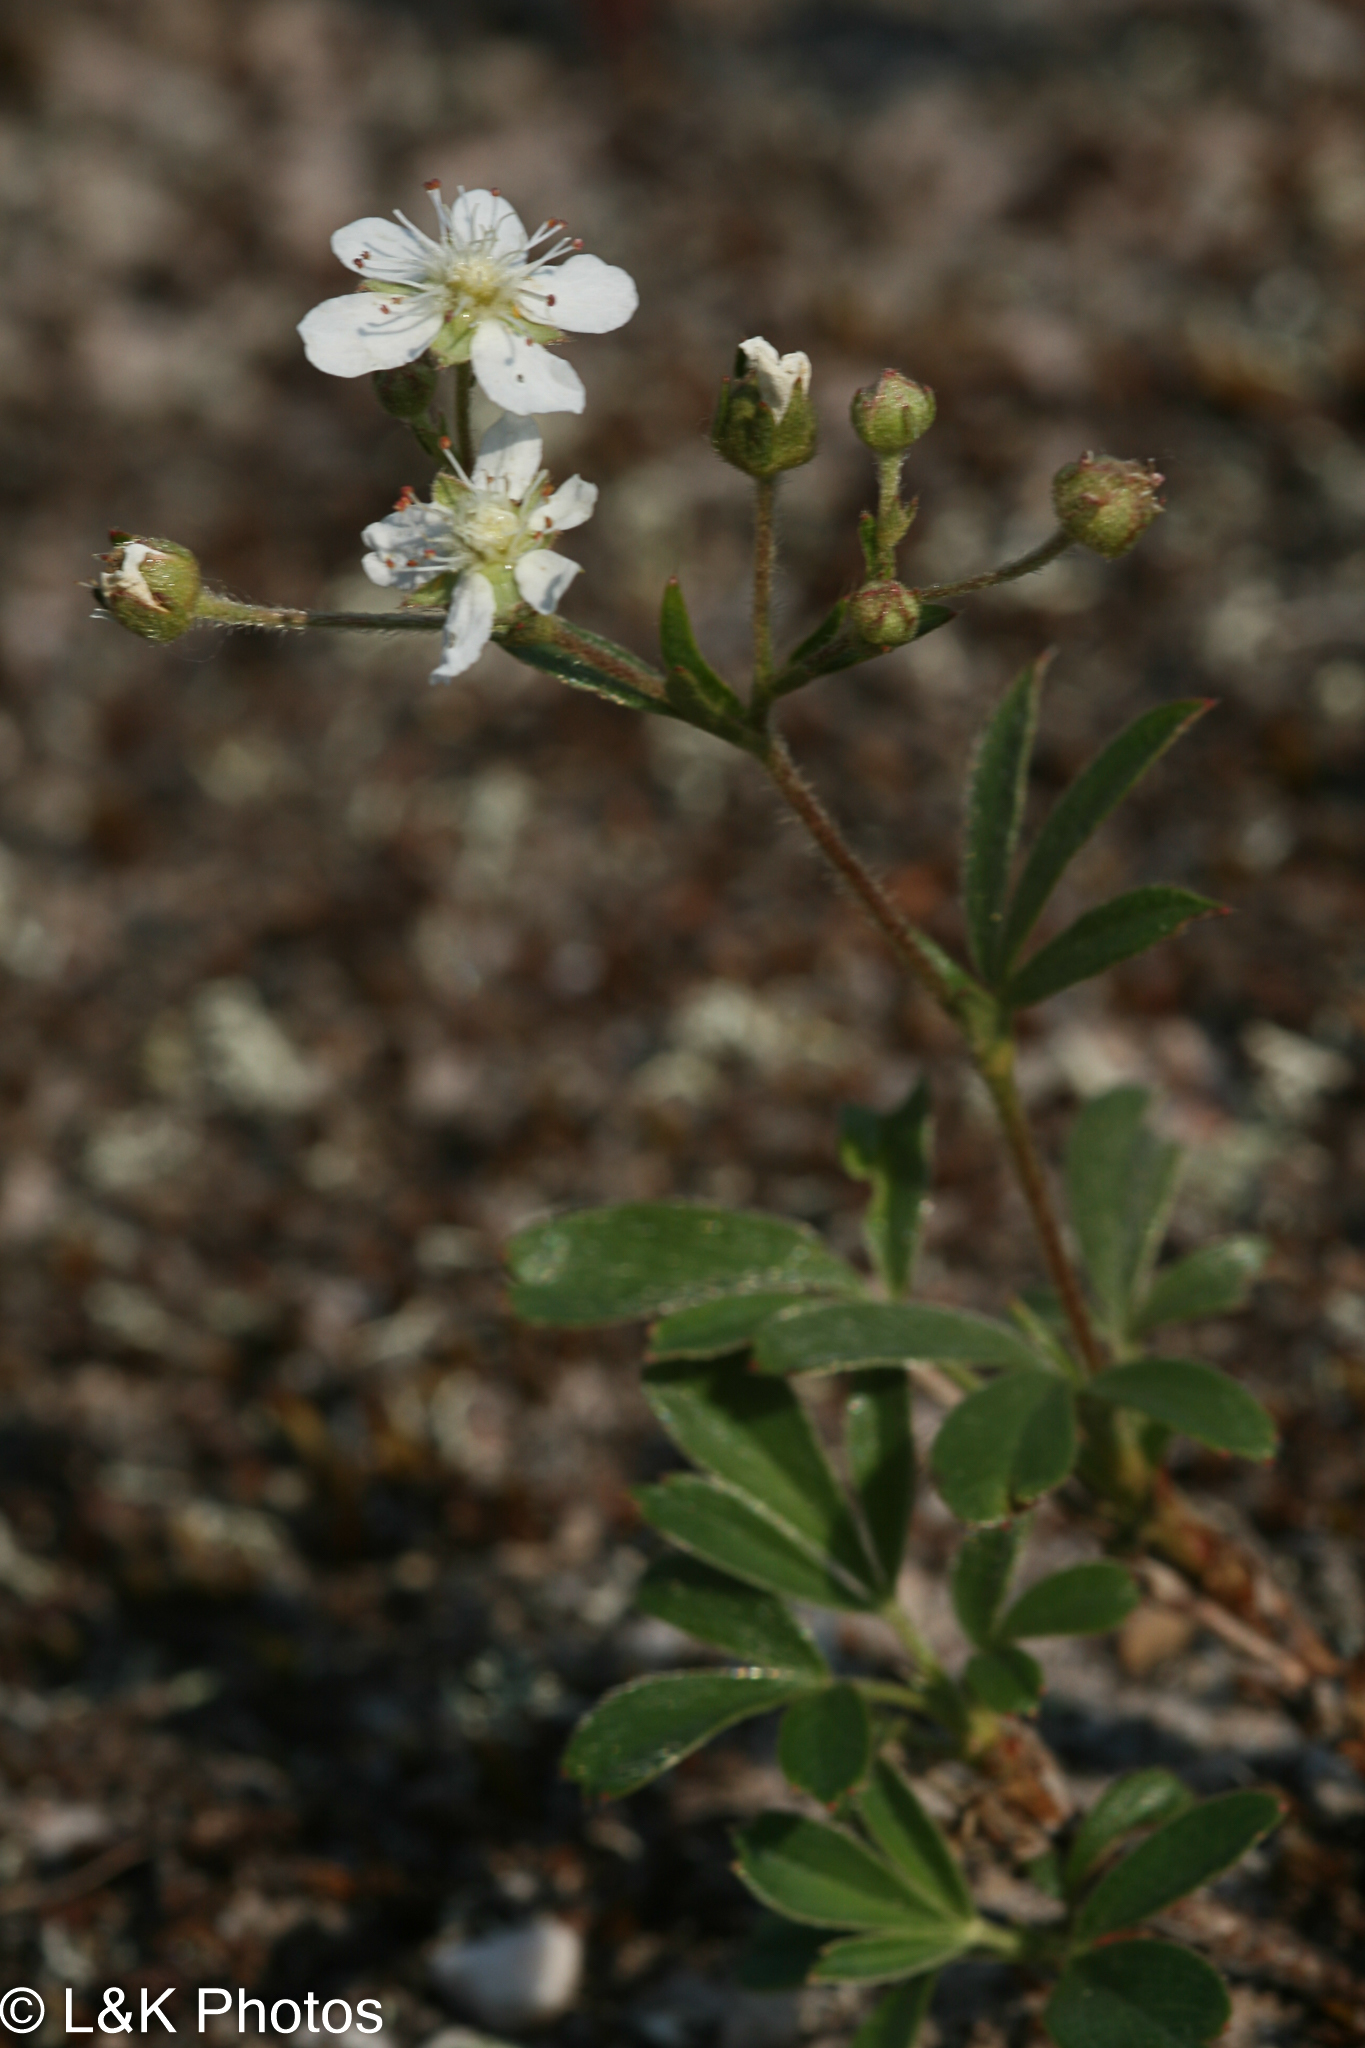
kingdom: Plantae
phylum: Tracheophyta
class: Magnoliopsida
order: Rosales
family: Rosaceae
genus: Sibbaldia
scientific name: Sibbaldia tridentata
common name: Three-toothed cinquefoil
